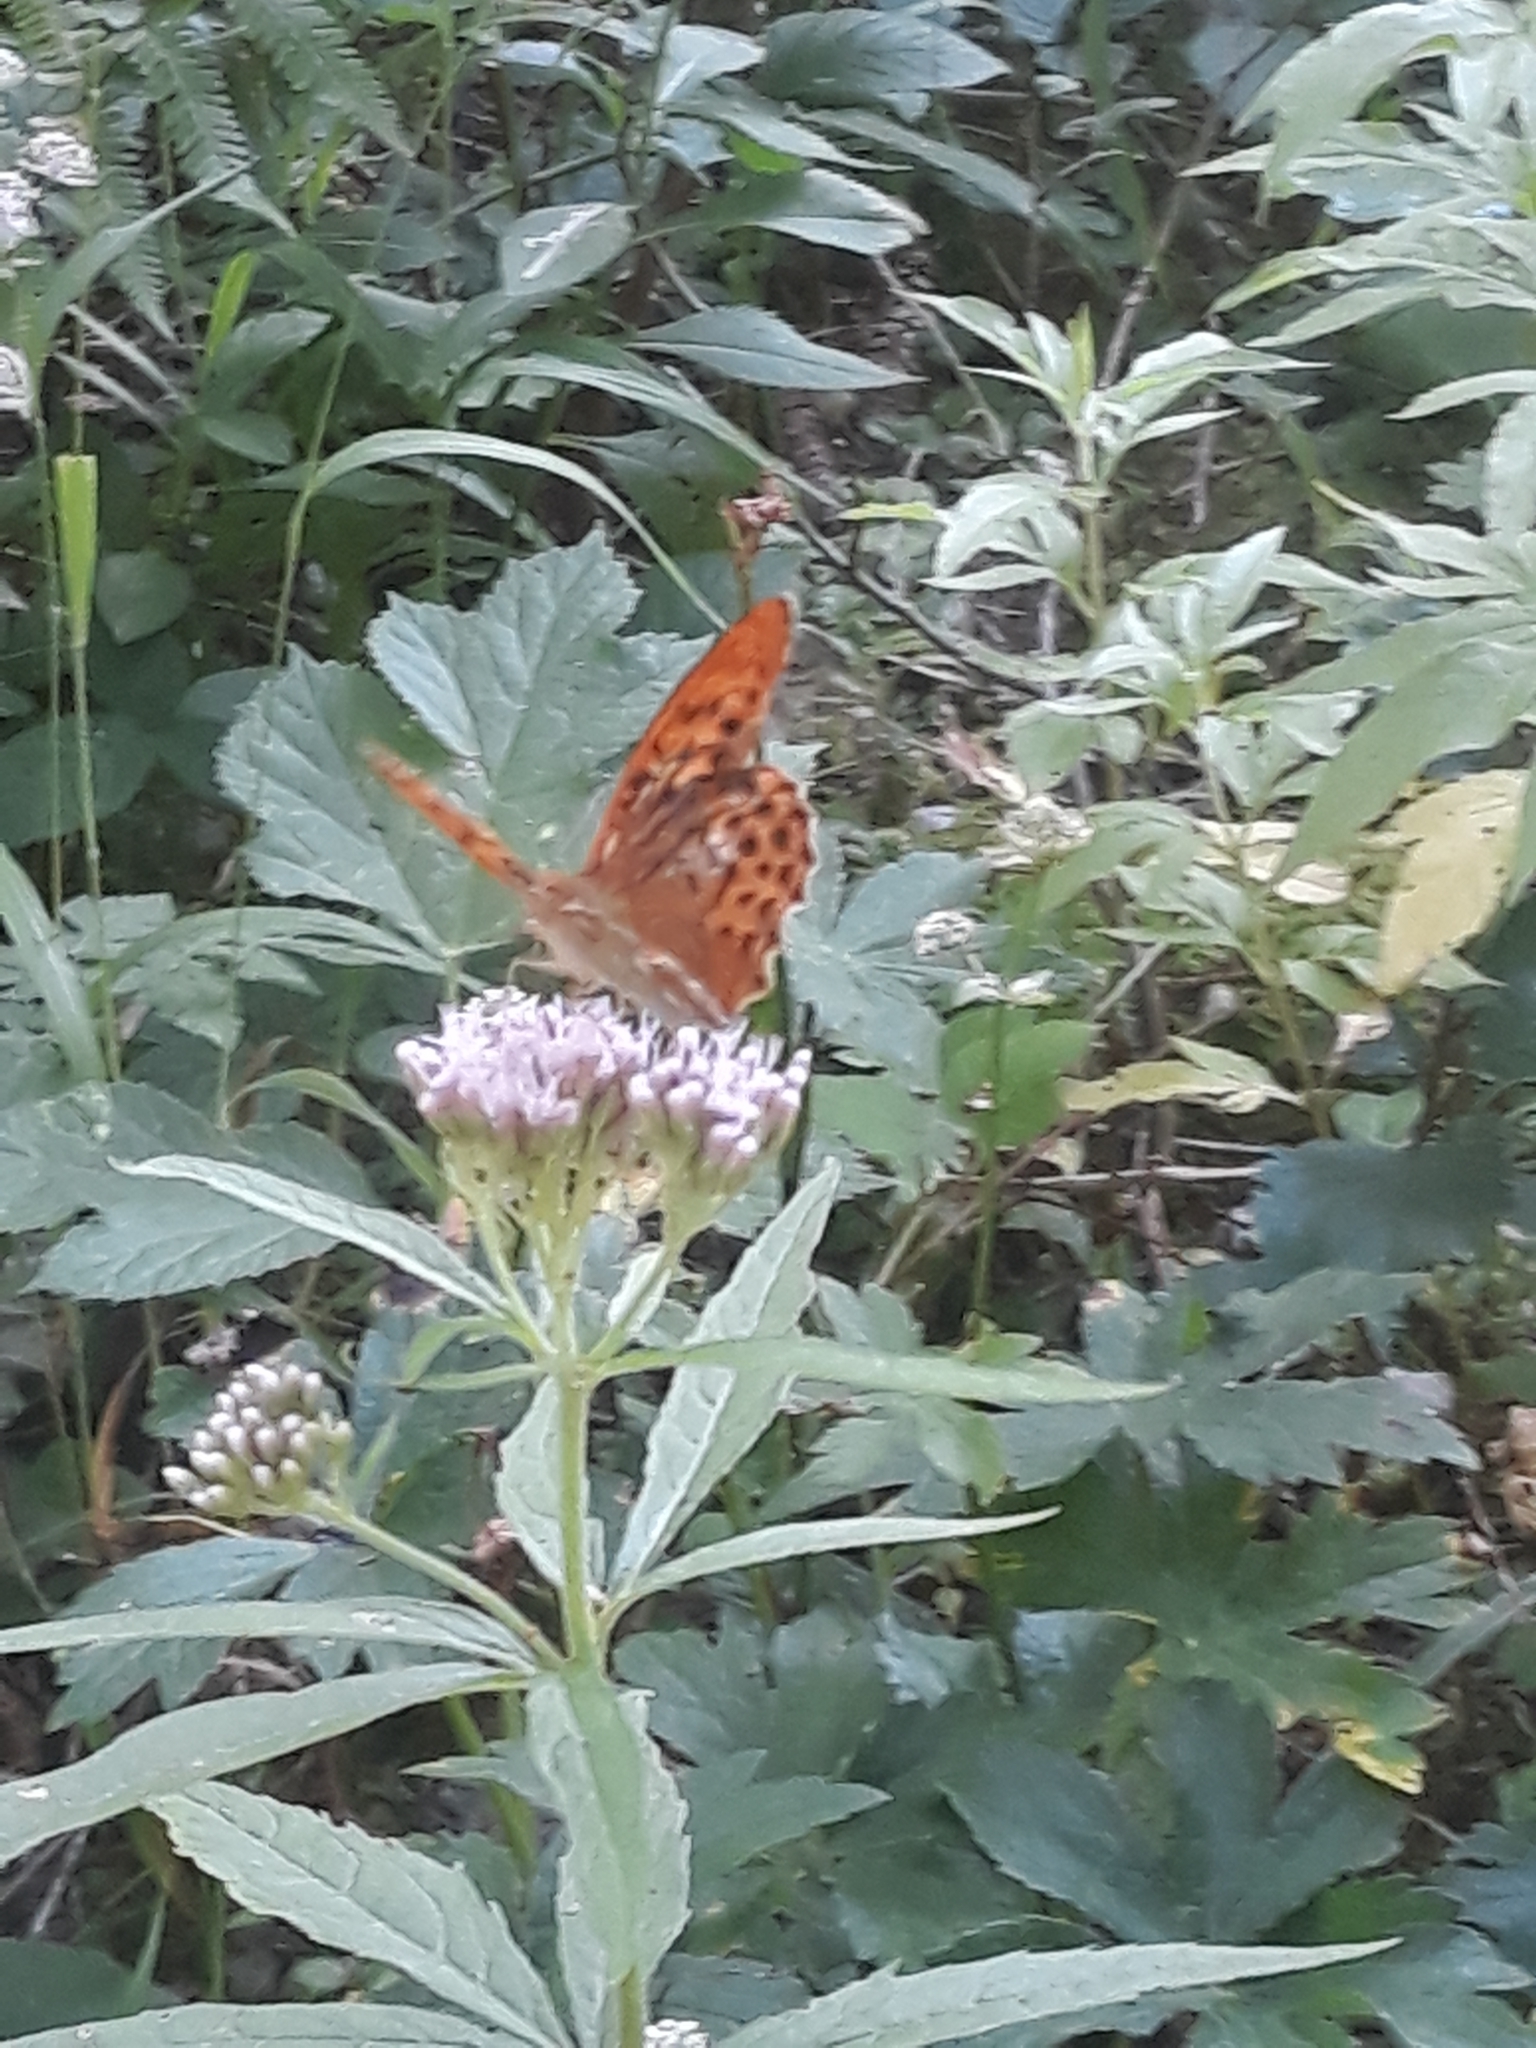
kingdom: Animalia
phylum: Arthropoda
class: Insecta
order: Lepidoptera
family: Nymphalidae
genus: Argynnis
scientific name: Argynnis paphia
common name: Silver-washed fritillary
